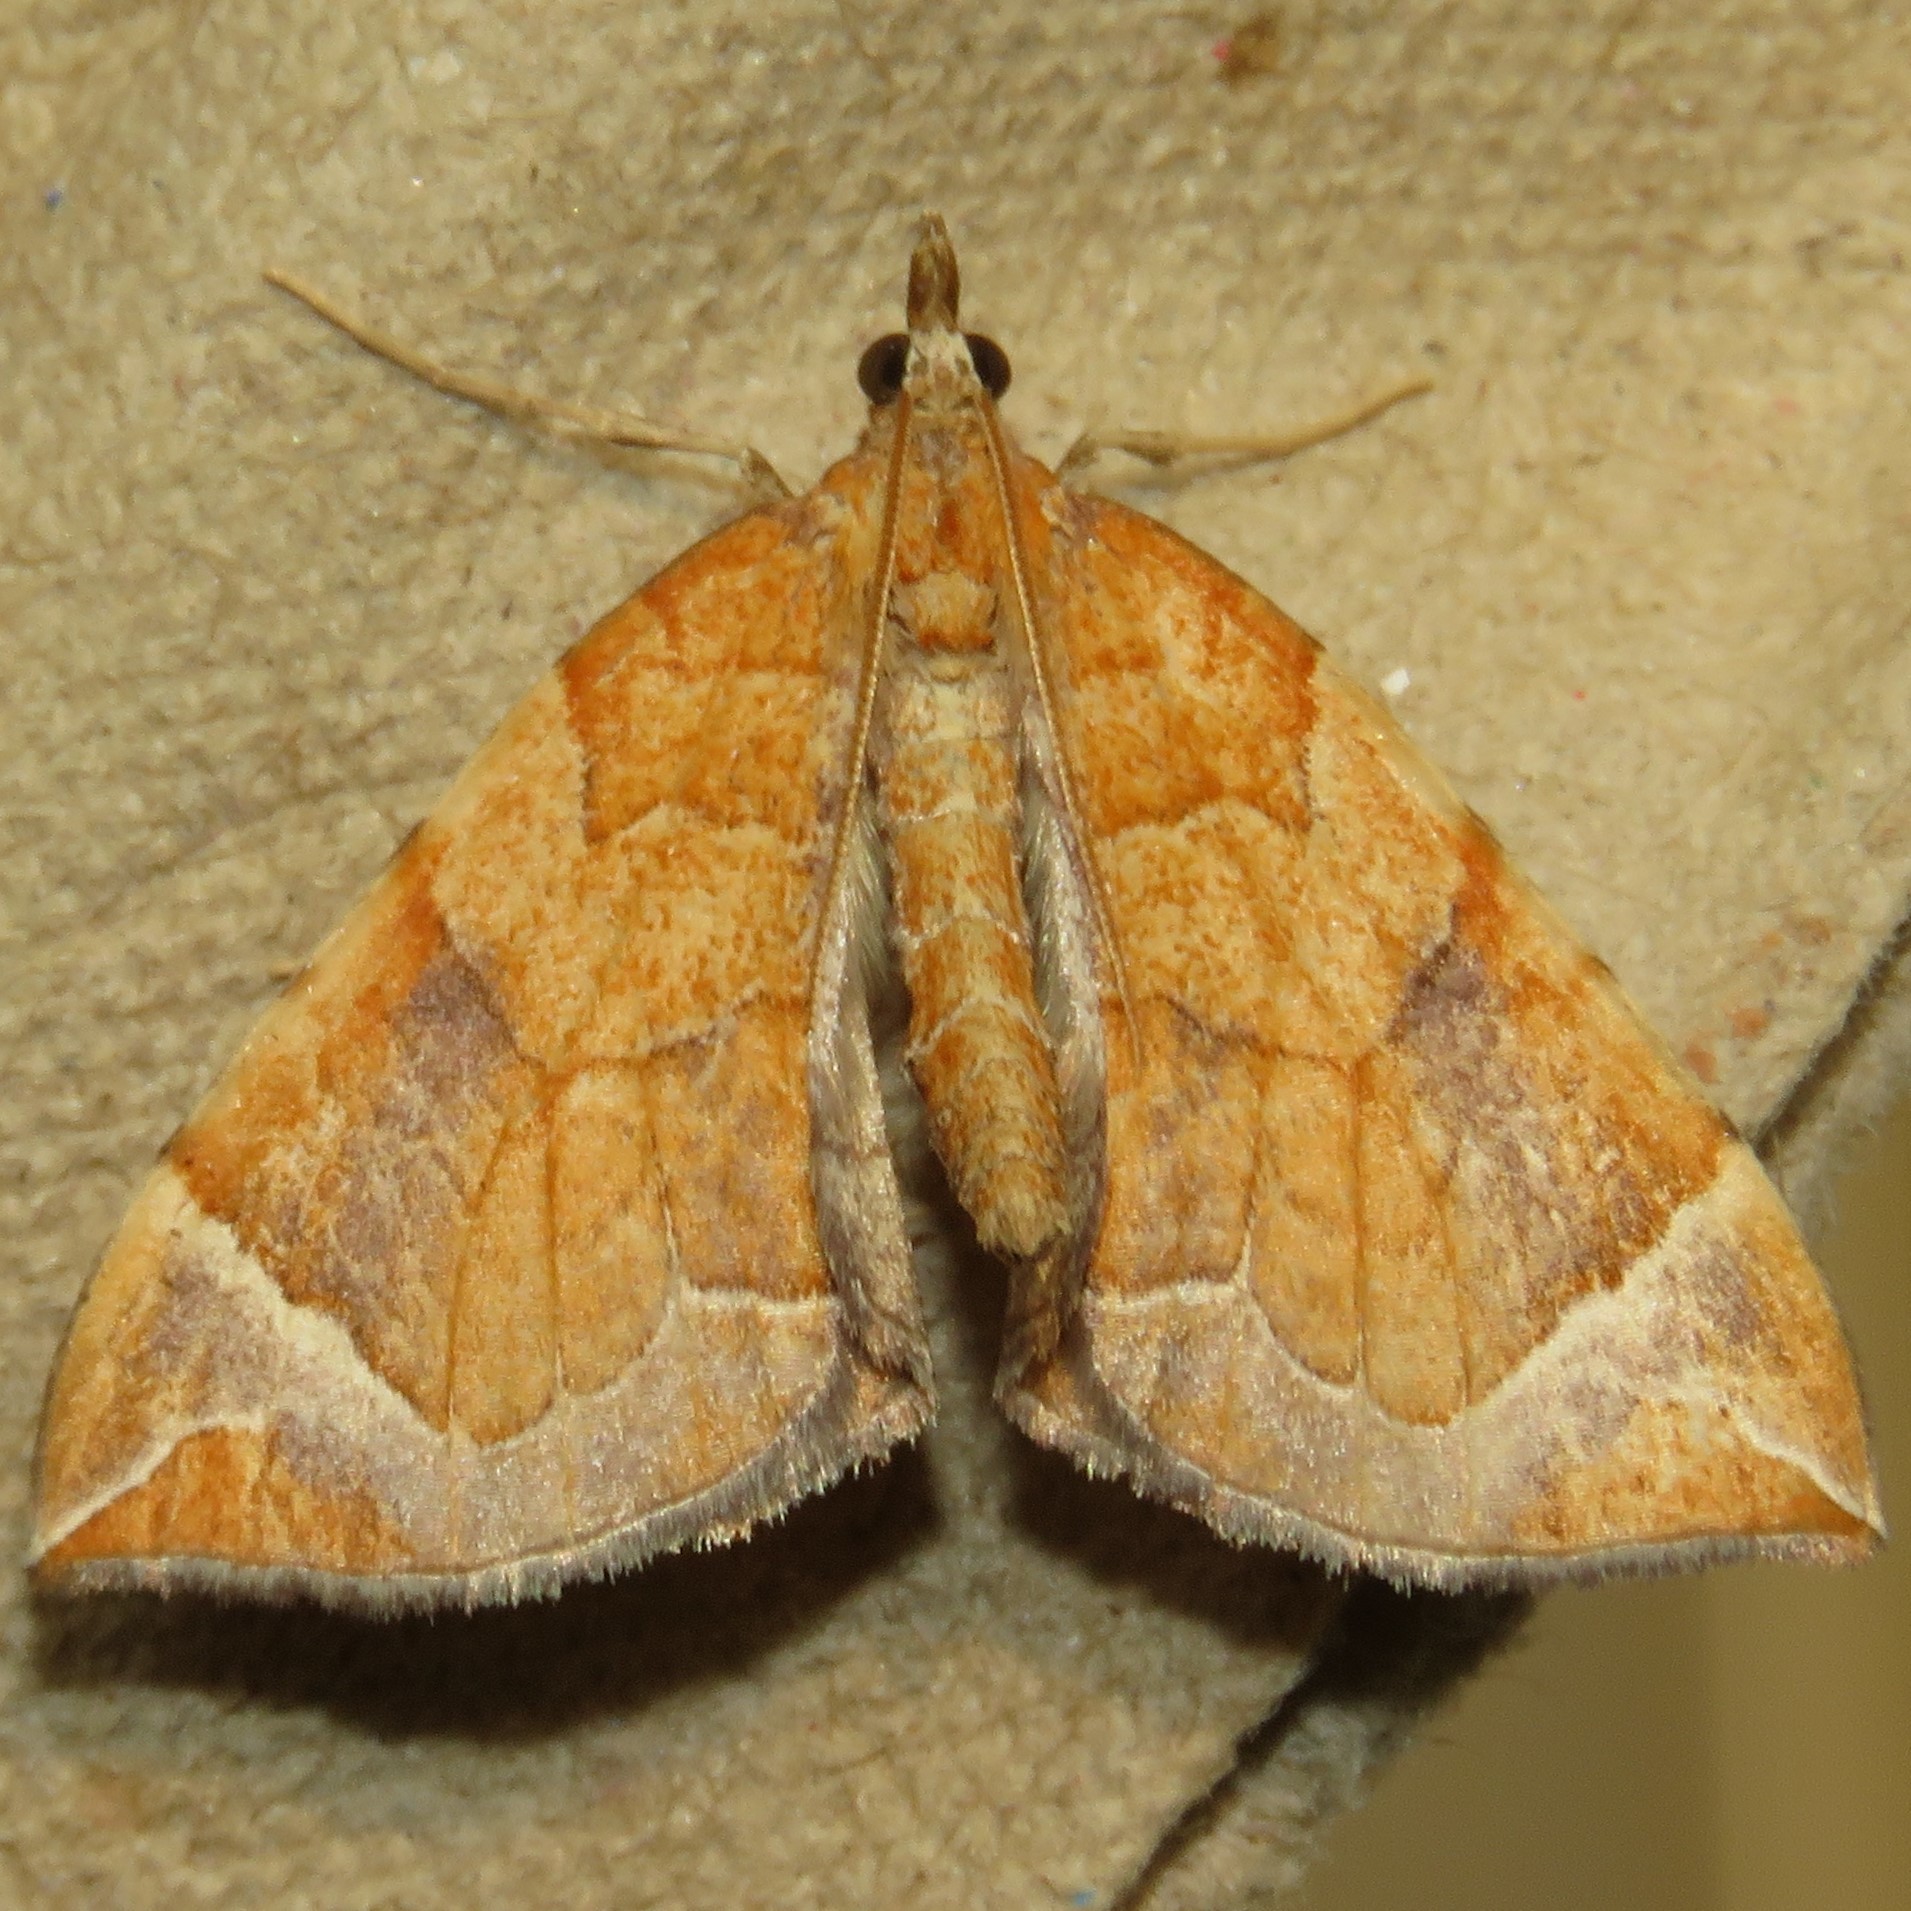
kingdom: Animalia
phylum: Arthropoda
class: Insecta
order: Lepidoptera
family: Geometridae
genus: Eulithis
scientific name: Eulithis testata
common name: Chevron
